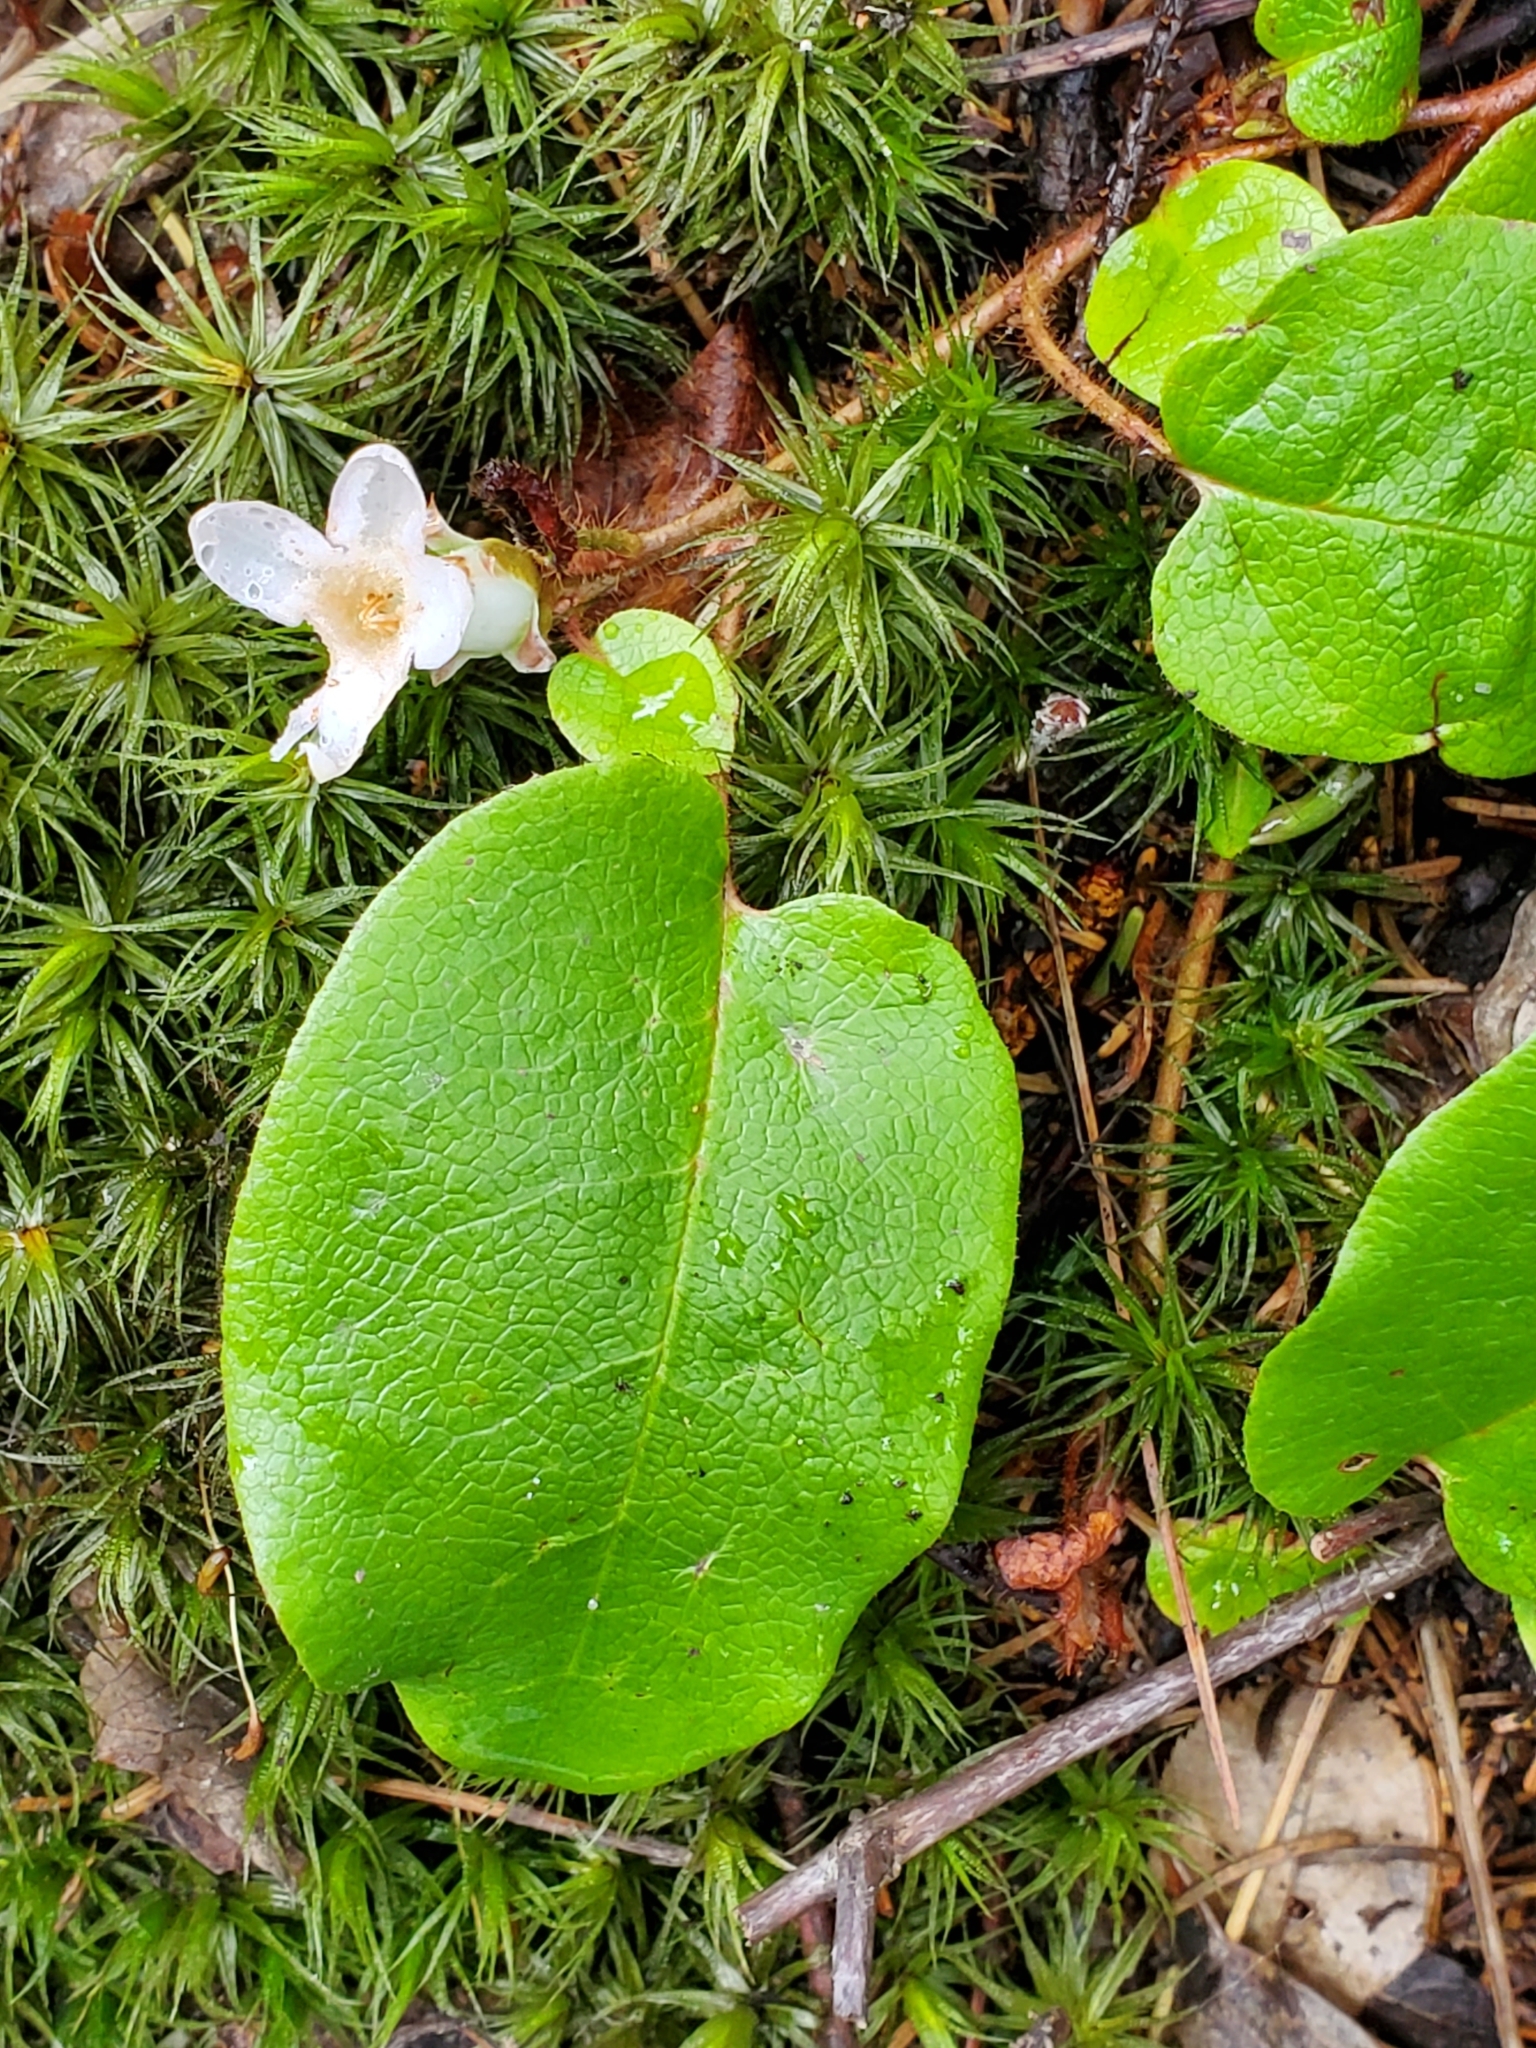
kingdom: Plantae
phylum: Tracheophyta
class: Magnoliopsida
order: Ericales
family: Ericaceae
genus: Epigaea
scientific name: Epigaea repens
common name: Gravelroot
